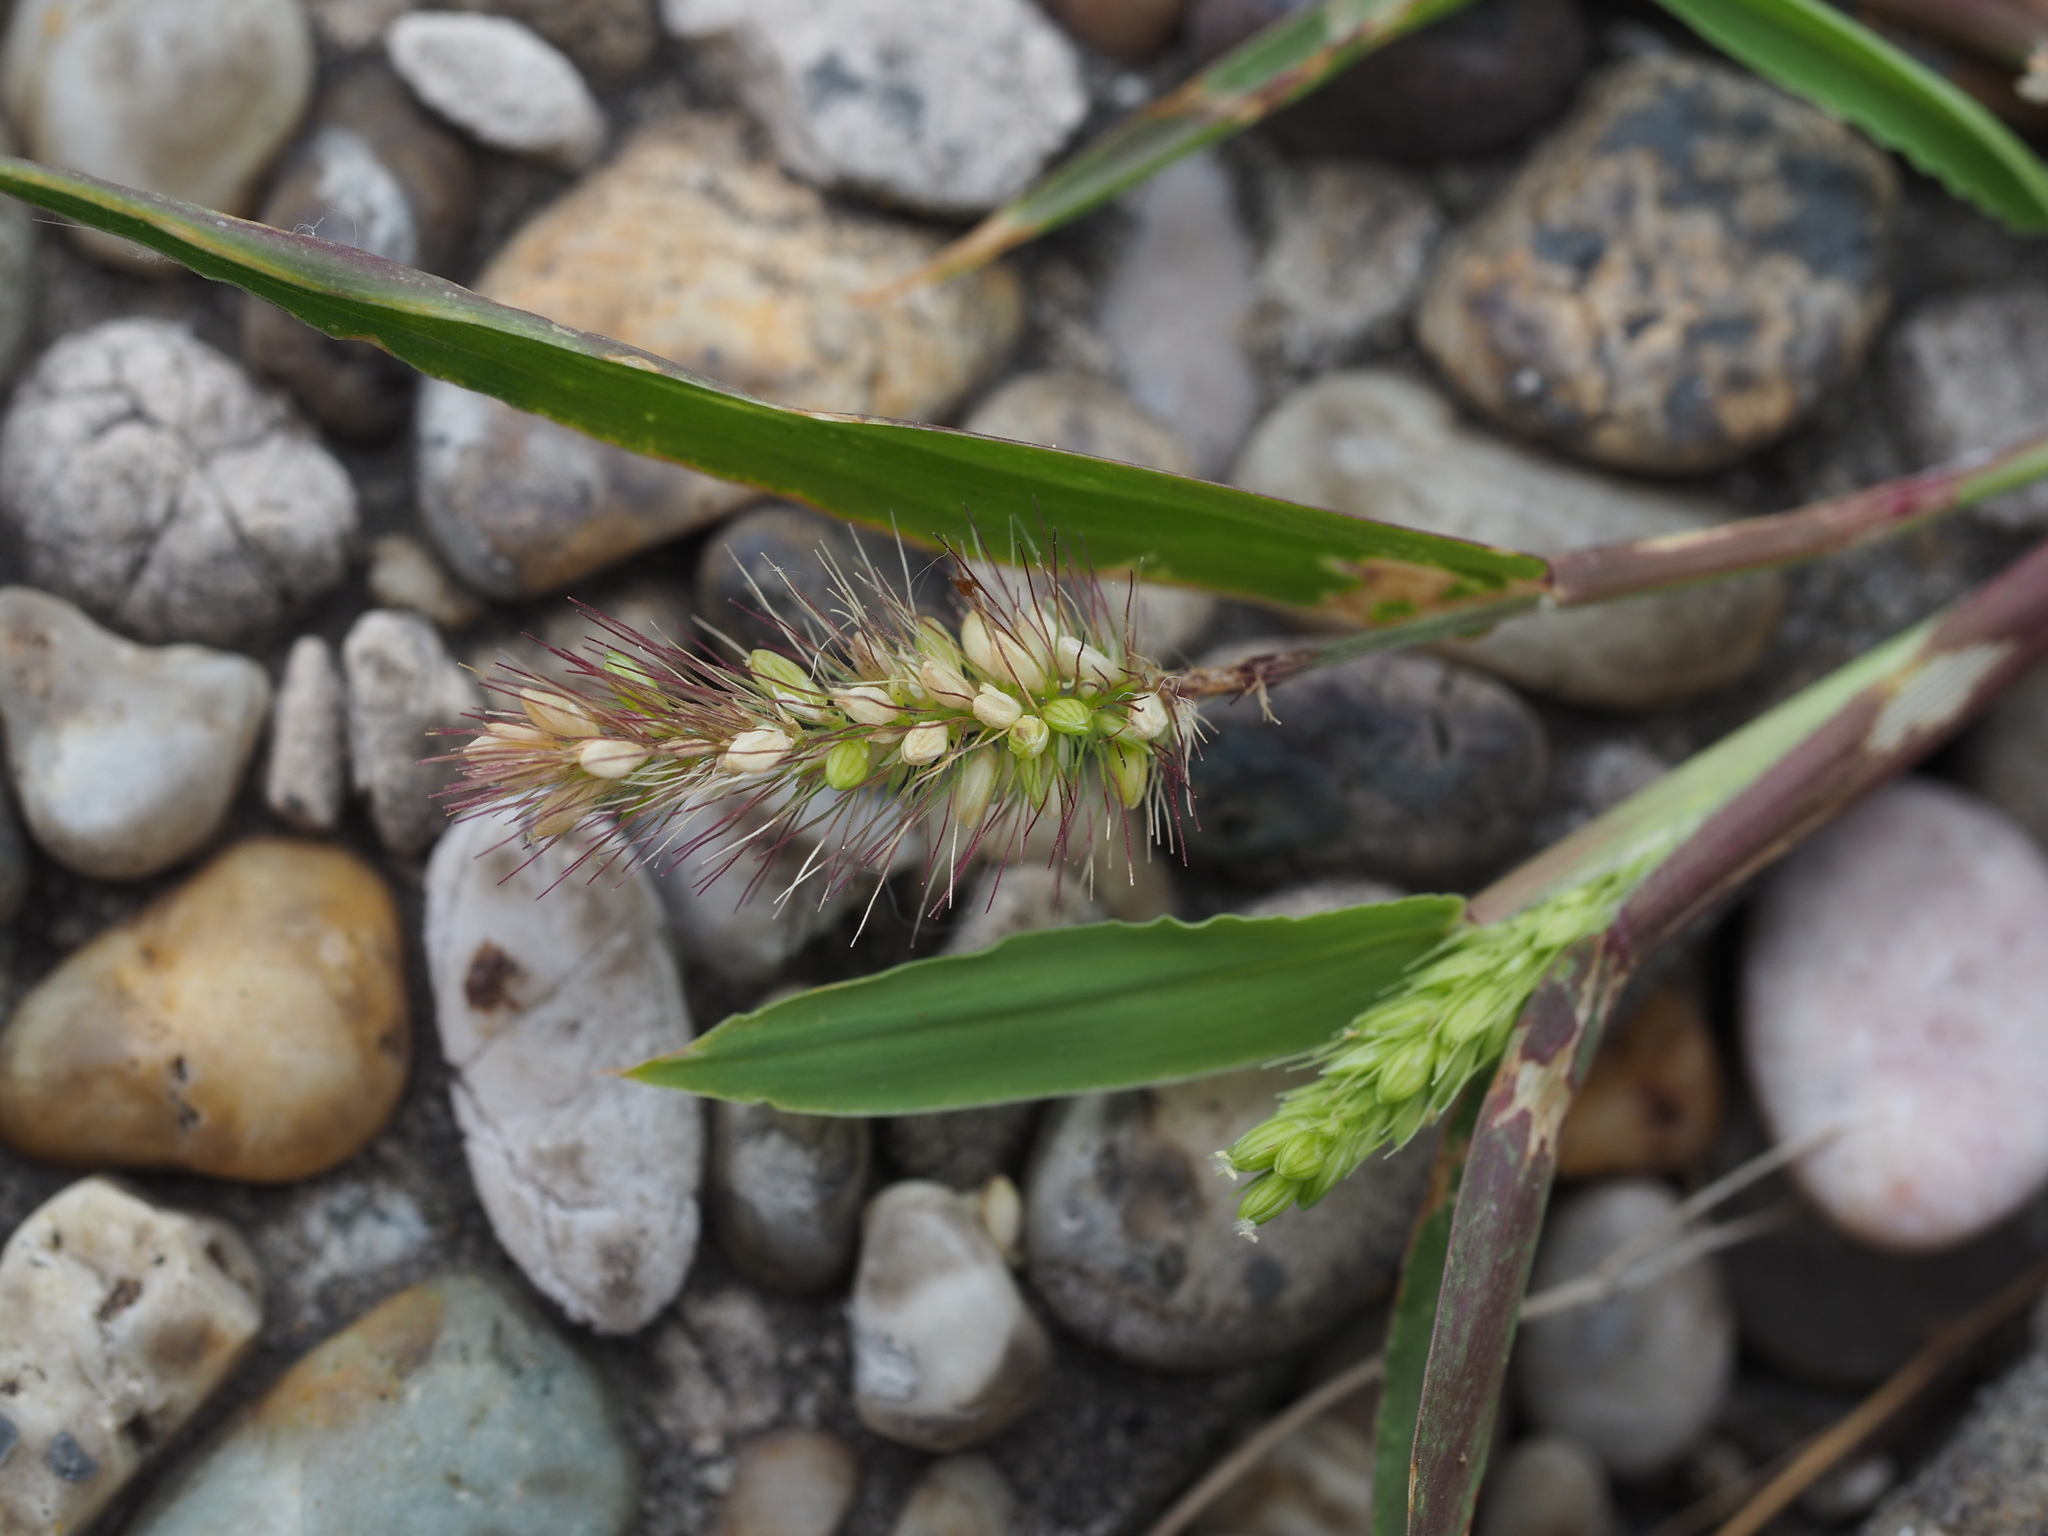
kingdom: Plantae
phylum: Tracheophyta
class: Liliopsida
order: Poales
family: Poaceae
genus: Setaria
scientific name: Setaria viridis
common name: Green bristlegrass
